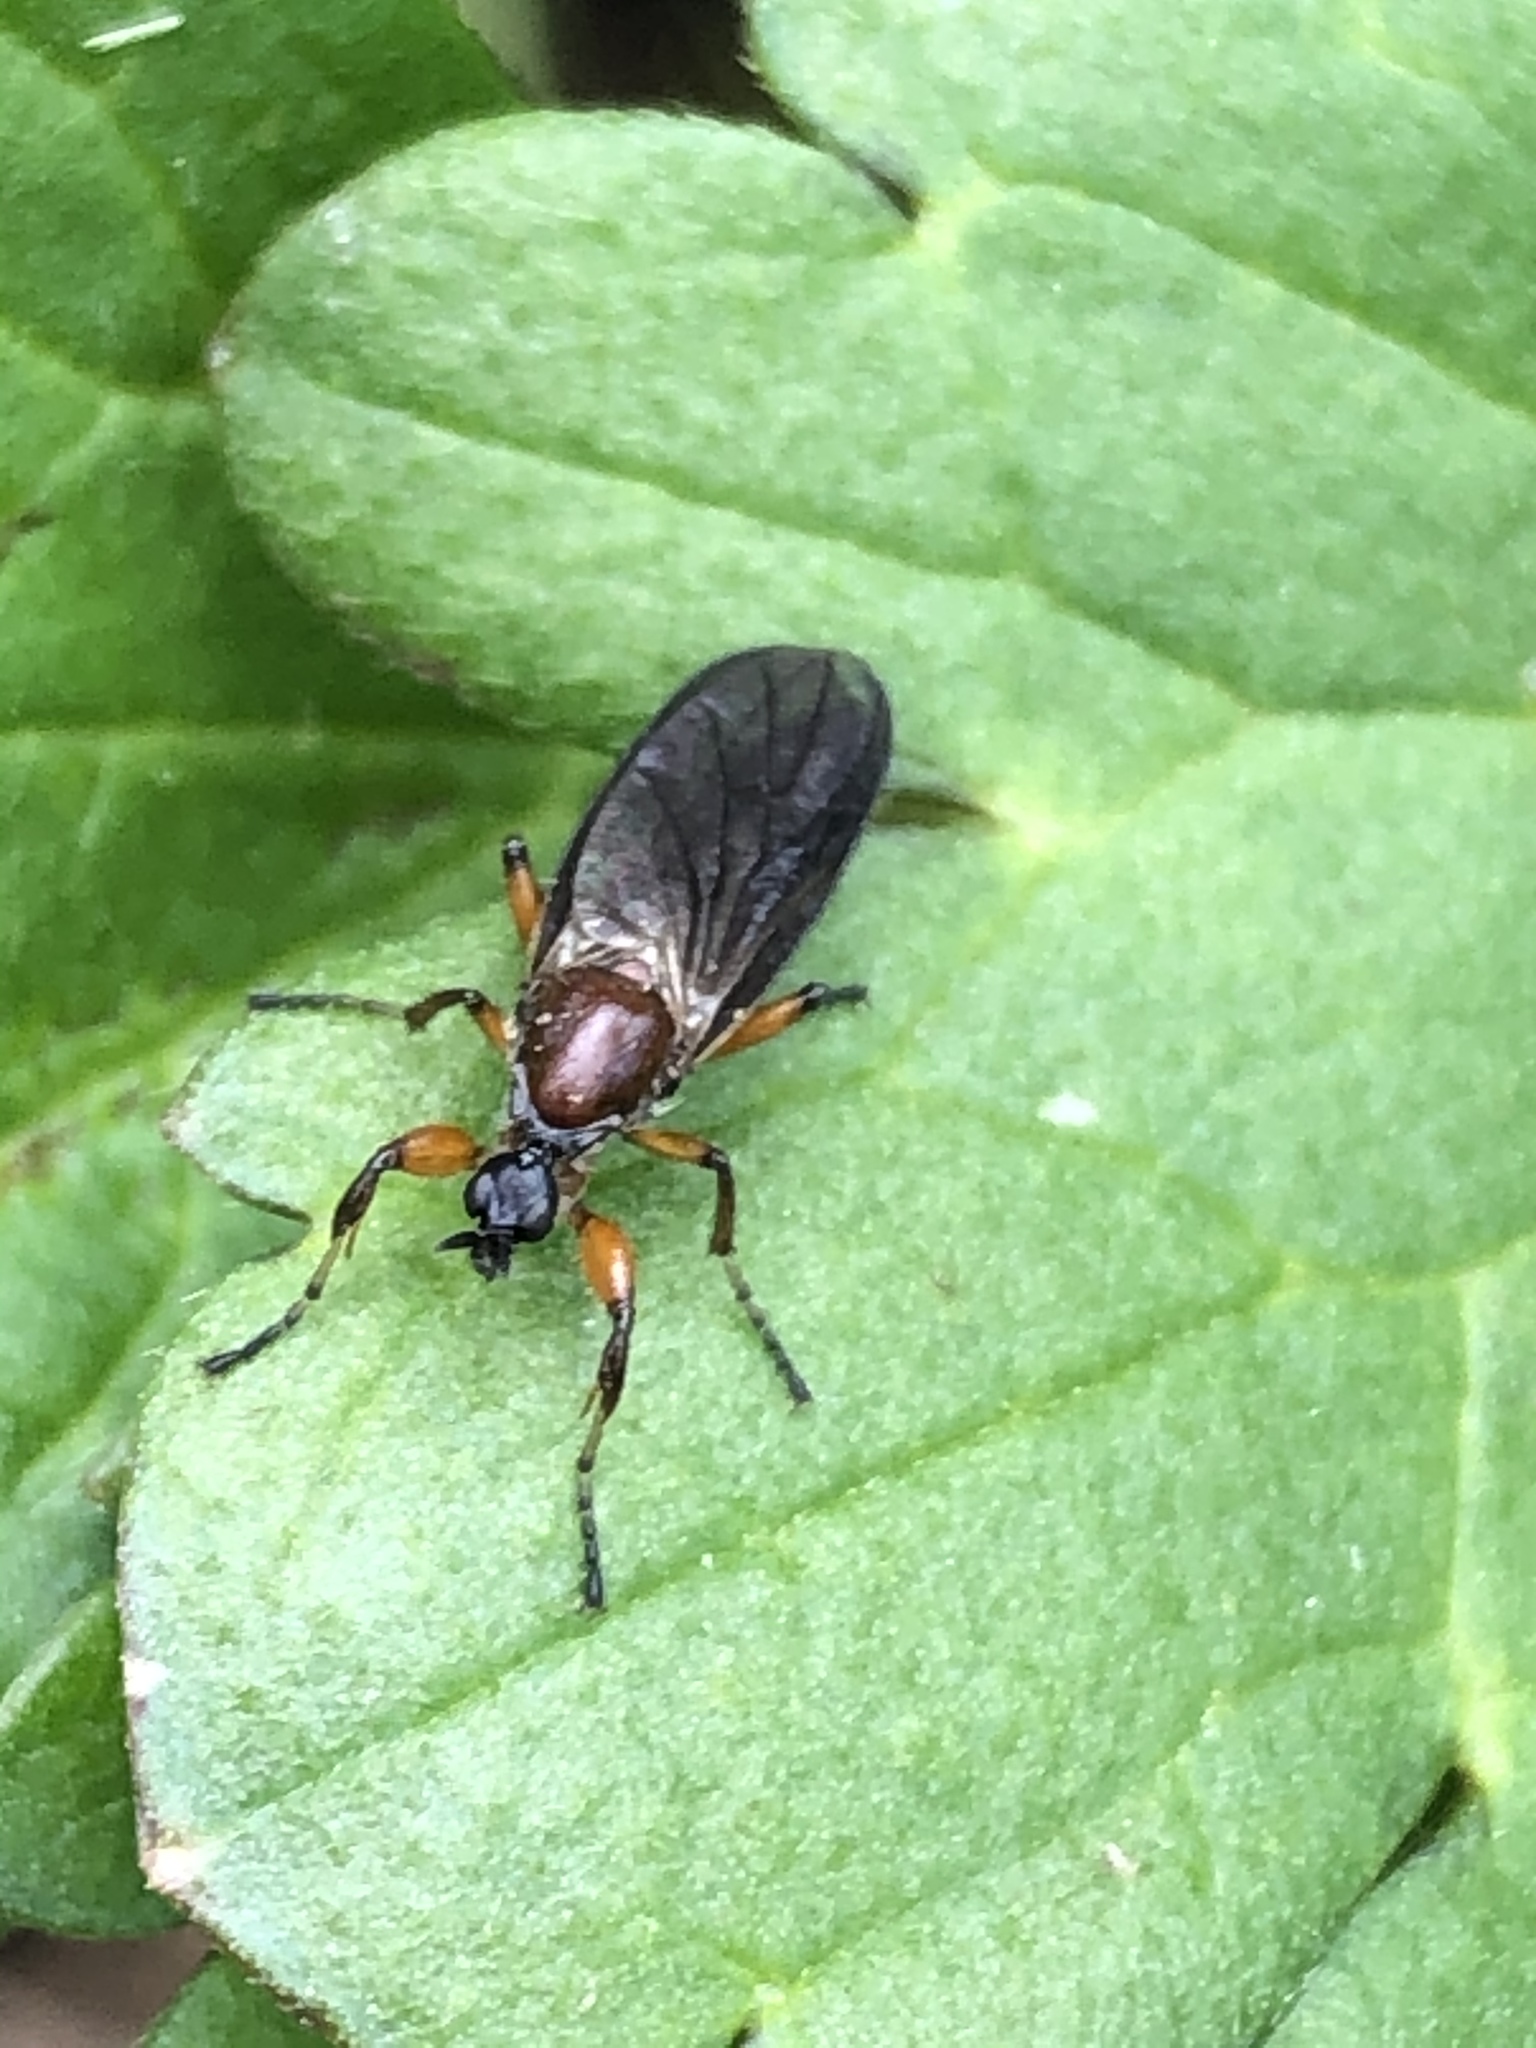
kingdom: Animalia
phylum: Arthropoda
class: Insecta
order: Diptera
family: Bibionidae
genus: Bibio
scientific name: Bibio articulatus
